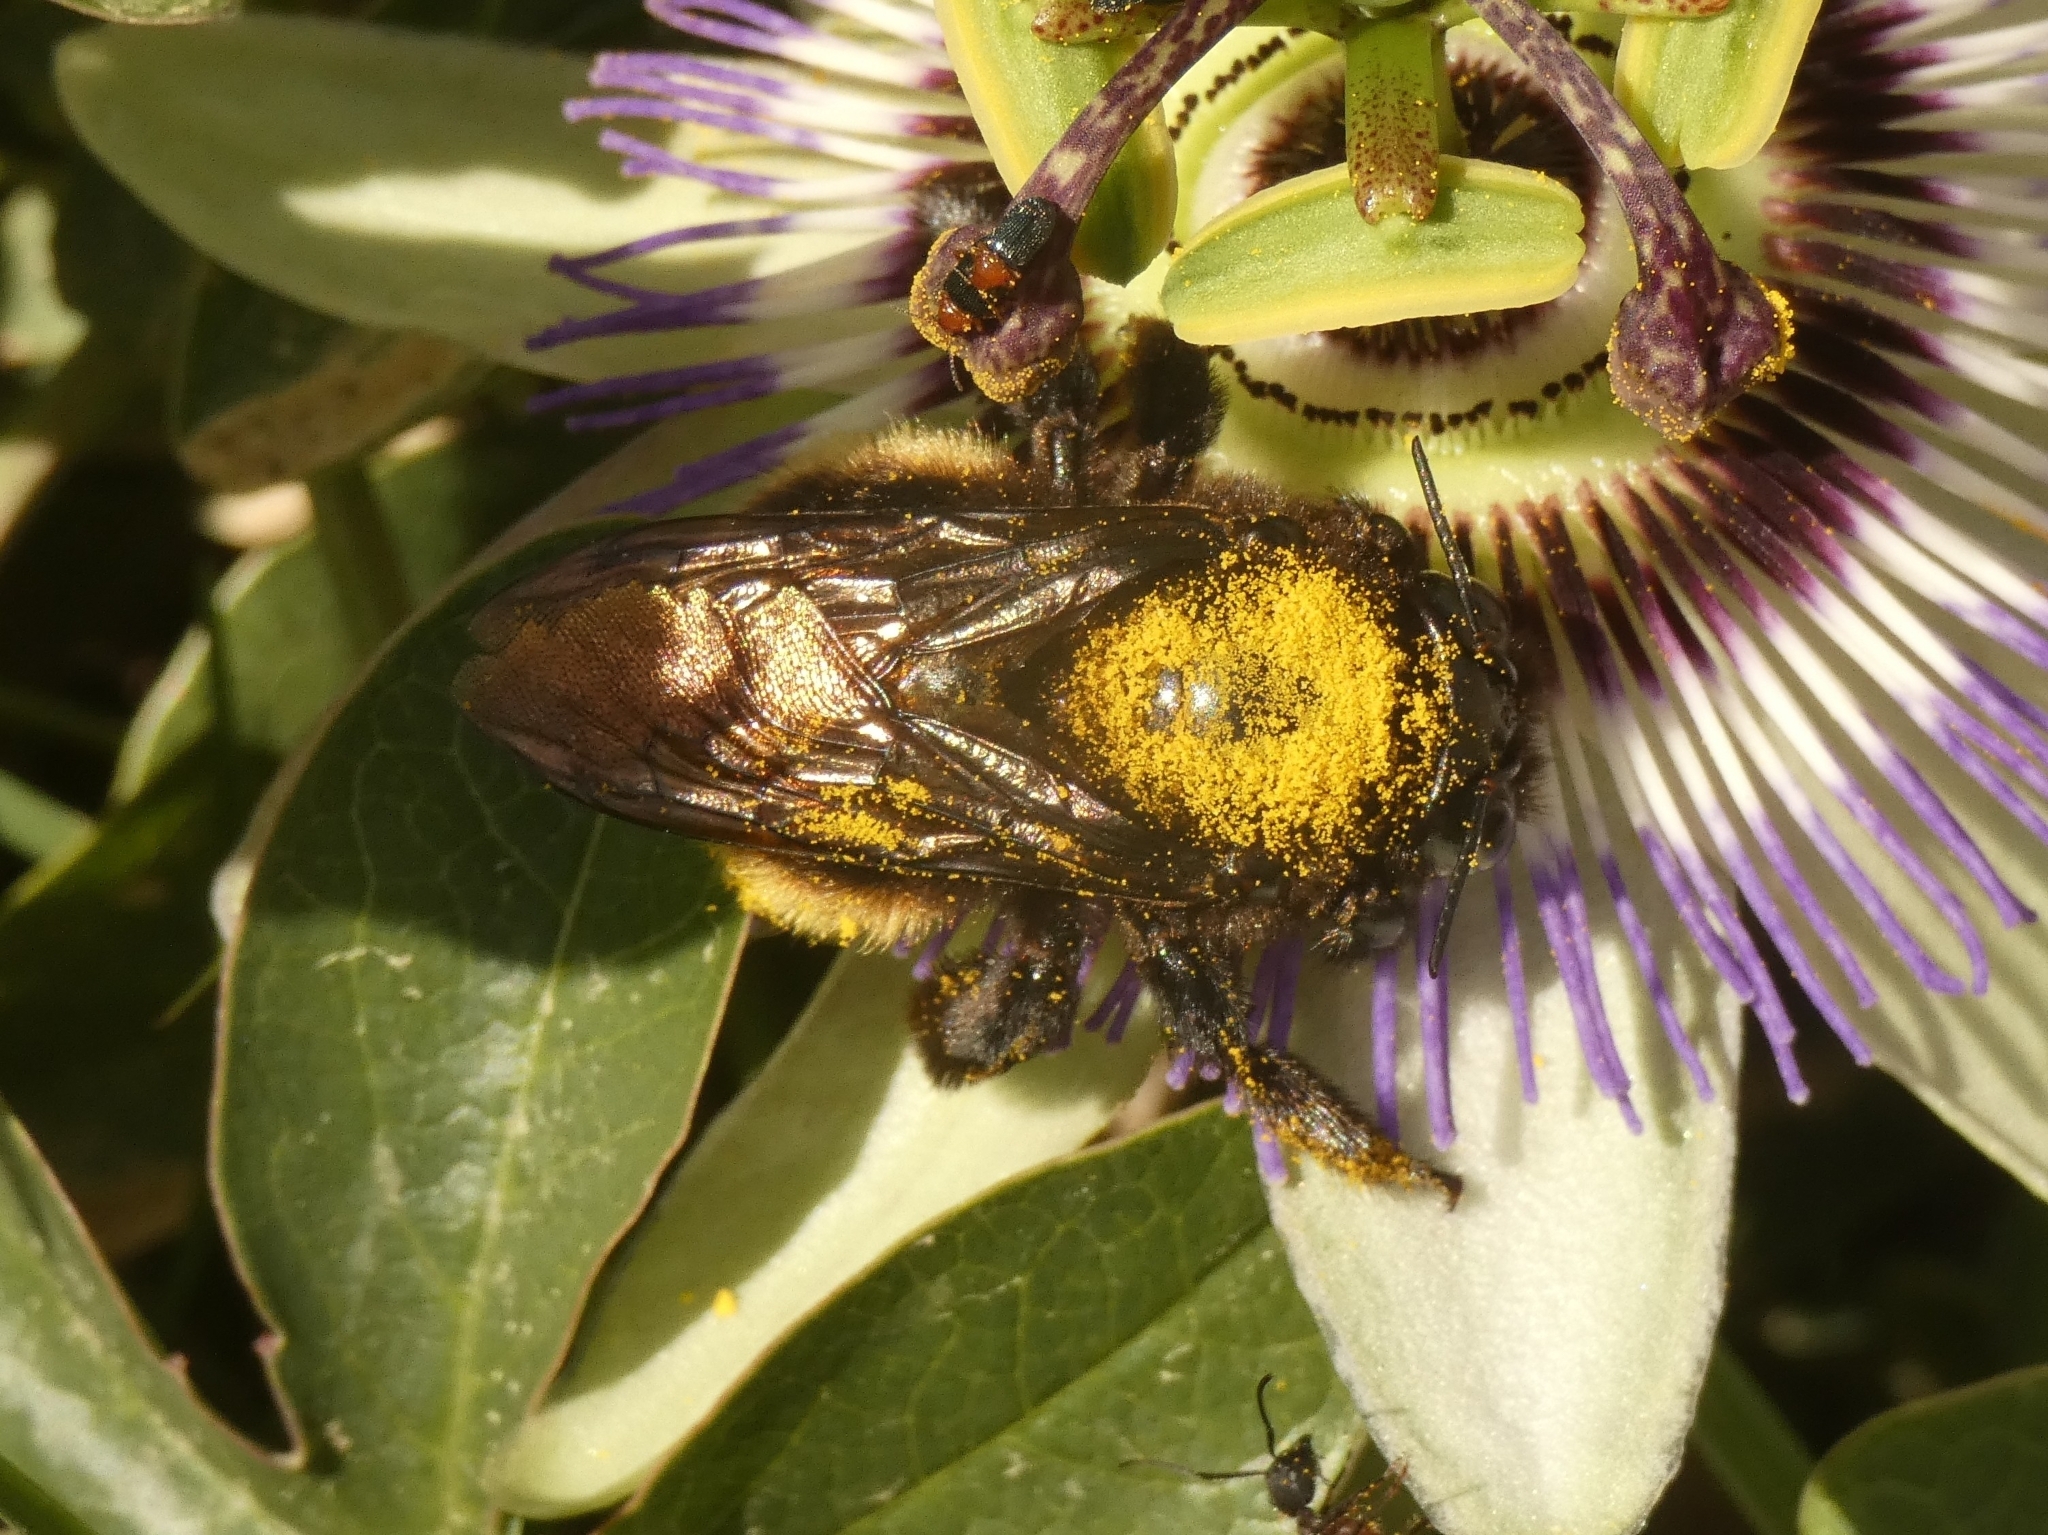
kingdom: Animalia
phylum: Arthropoda
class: Insecta
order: Hymenoptera
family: Apidae
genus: Xylocopa
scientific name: Xylocopa augusti
